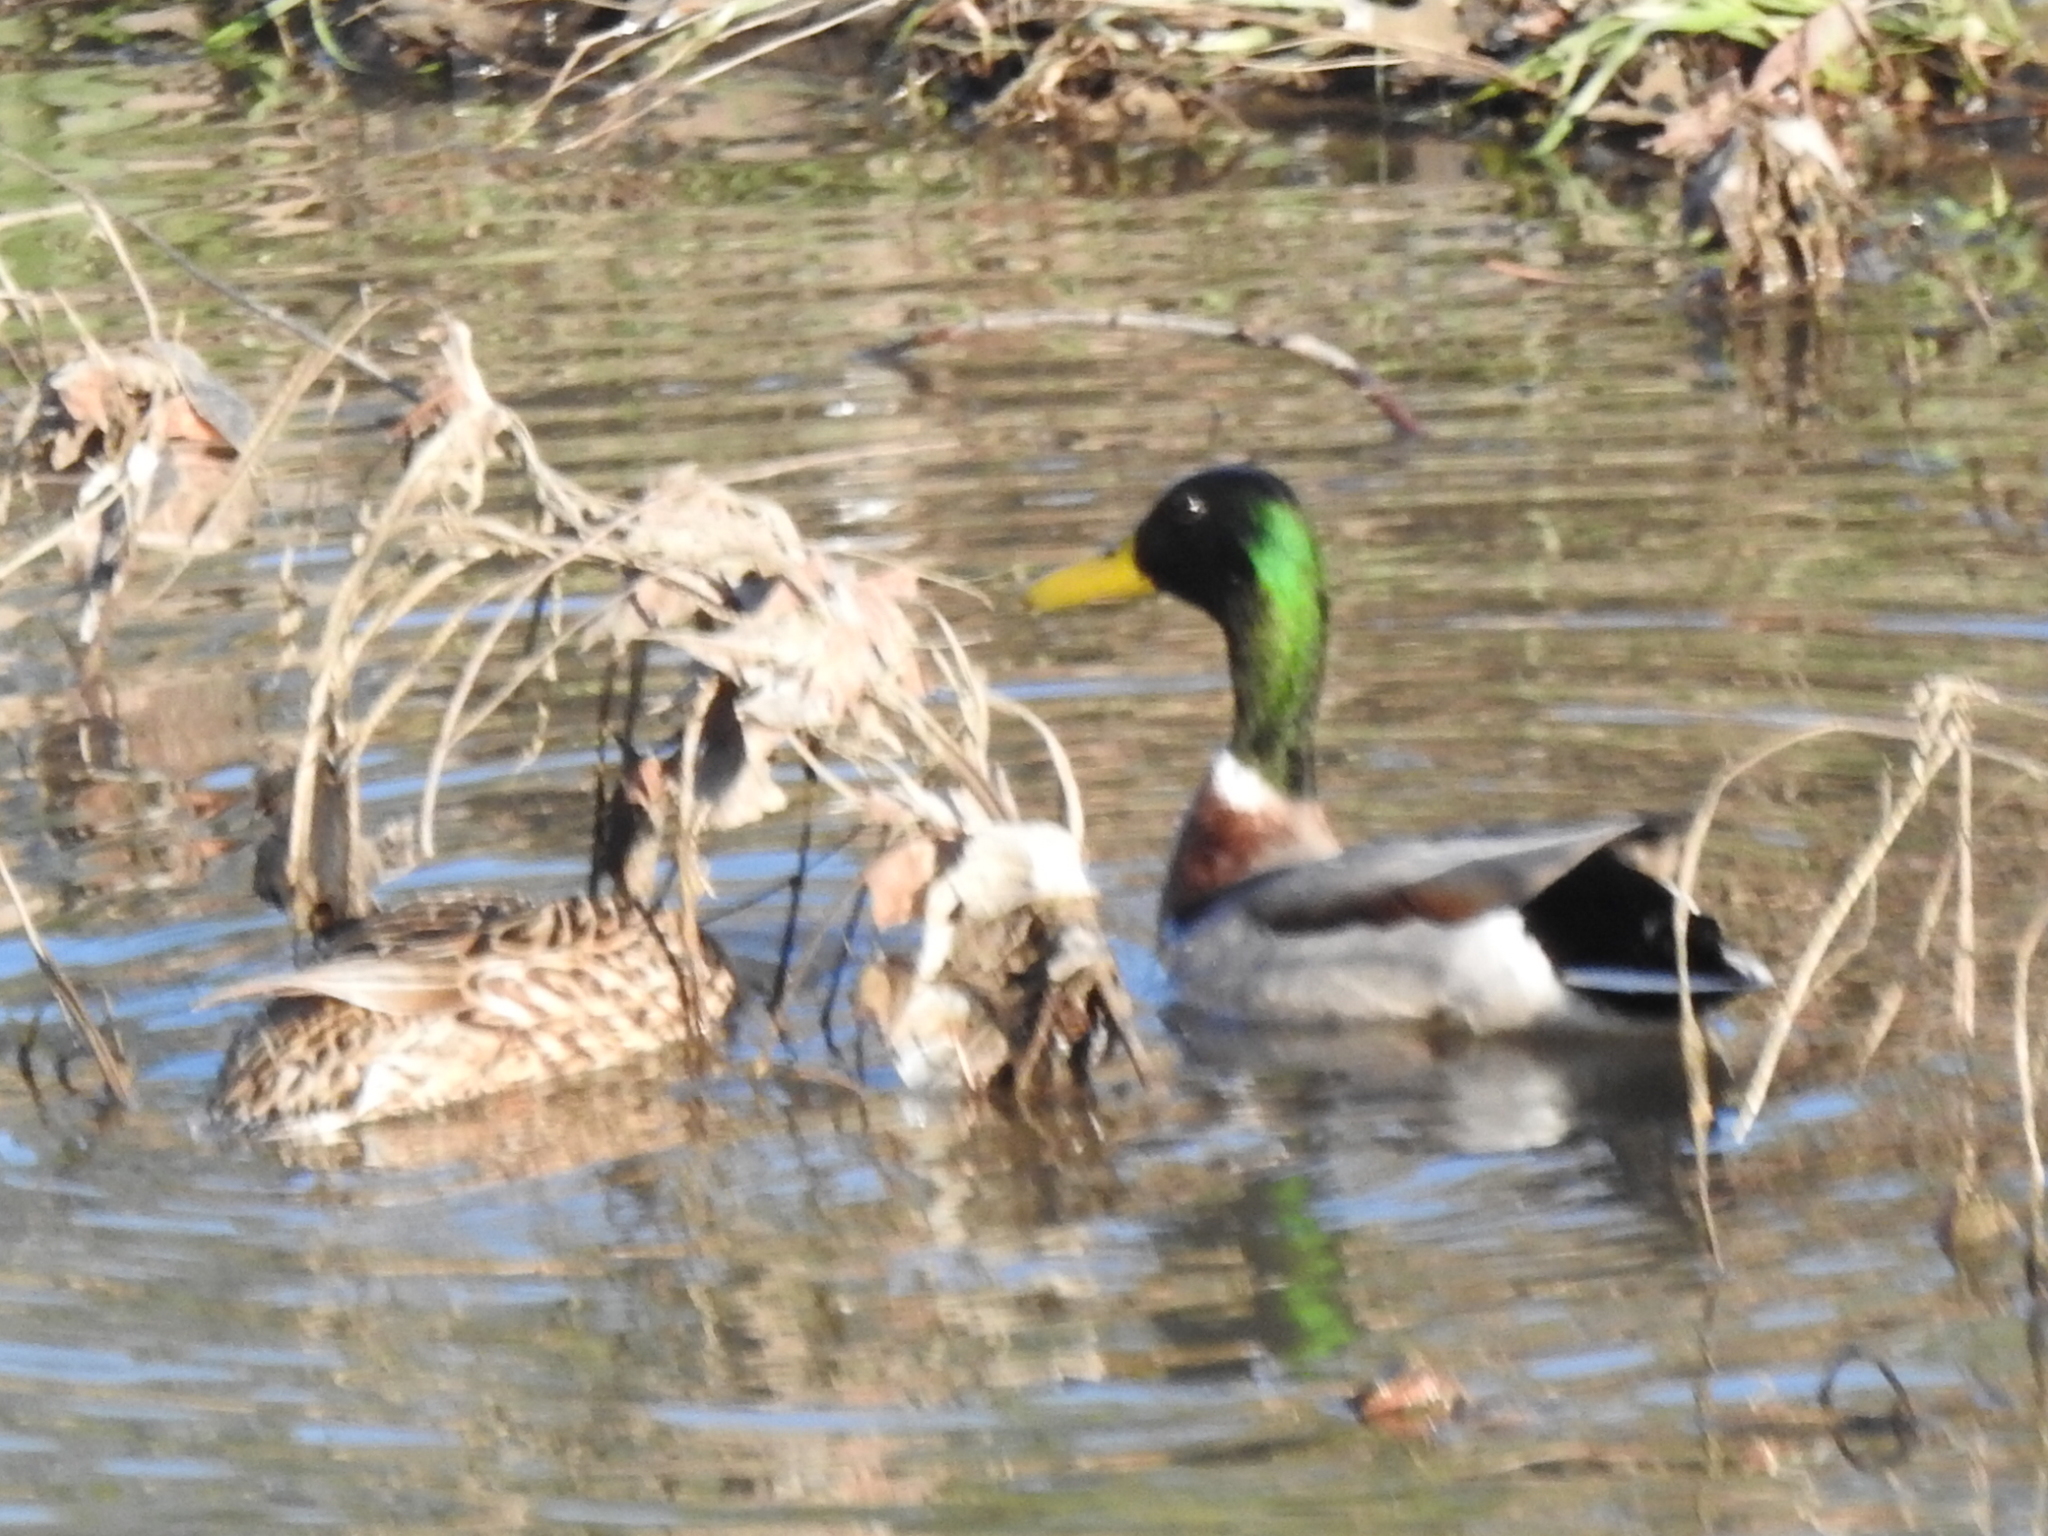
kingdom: Animalia
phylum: Chordata
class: Aves
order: Anseriformes
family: Anatidae
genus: Anas
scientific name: Anas platyrhynchos
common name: Mallard
